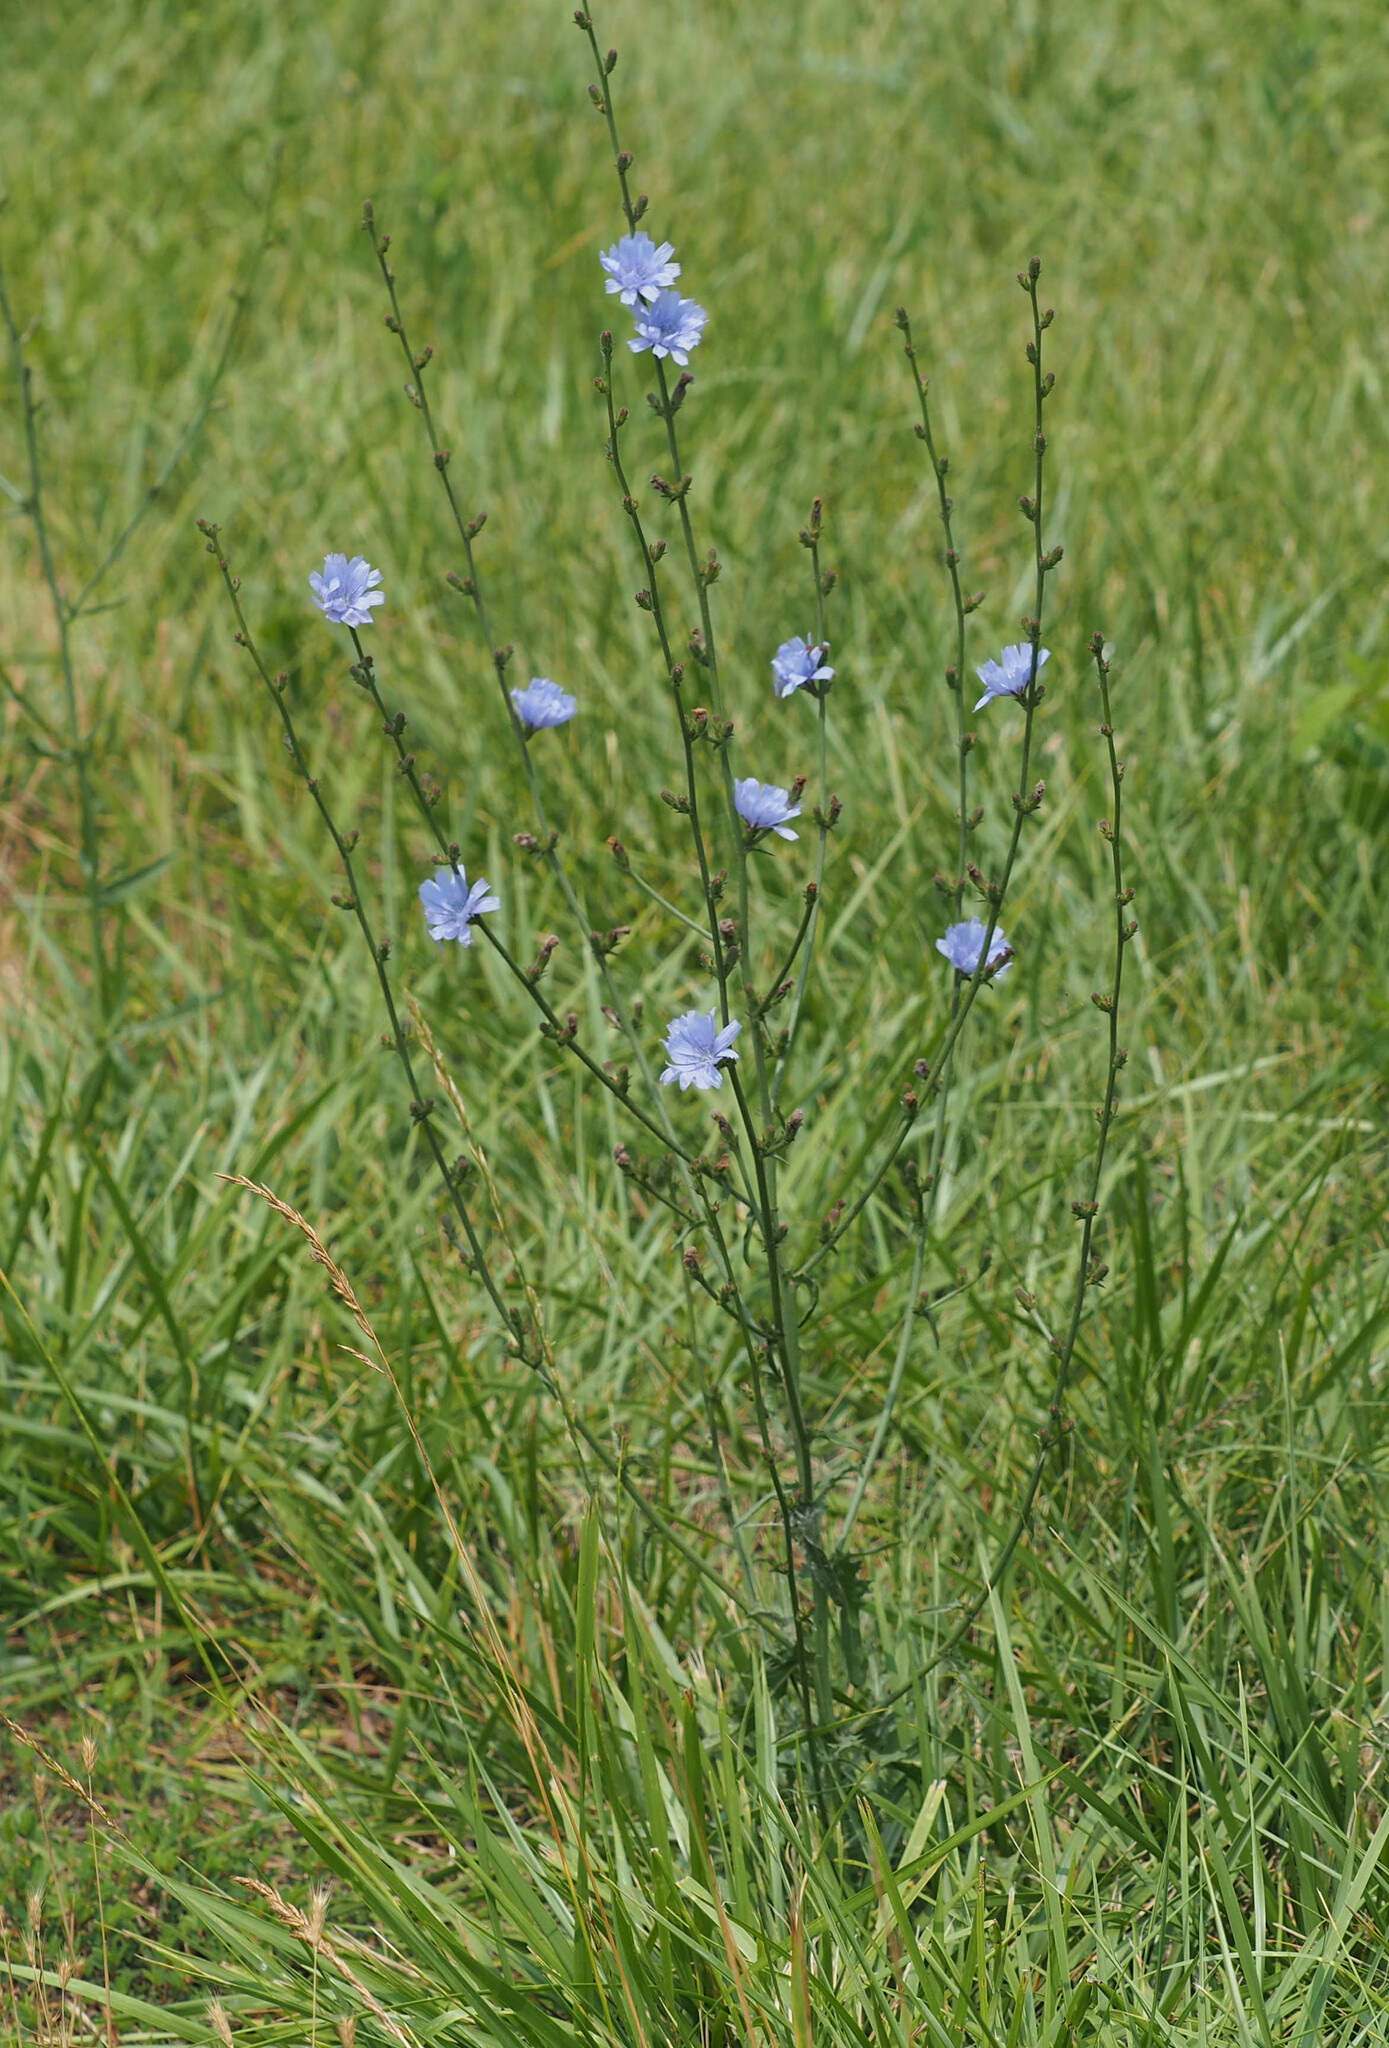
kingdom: Plantae
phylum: Tracheophyta
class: Magnoliopsida
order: Asterales
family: Asteraceae
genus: Cichorium
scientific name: Cichorium intybus
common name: Chicory
